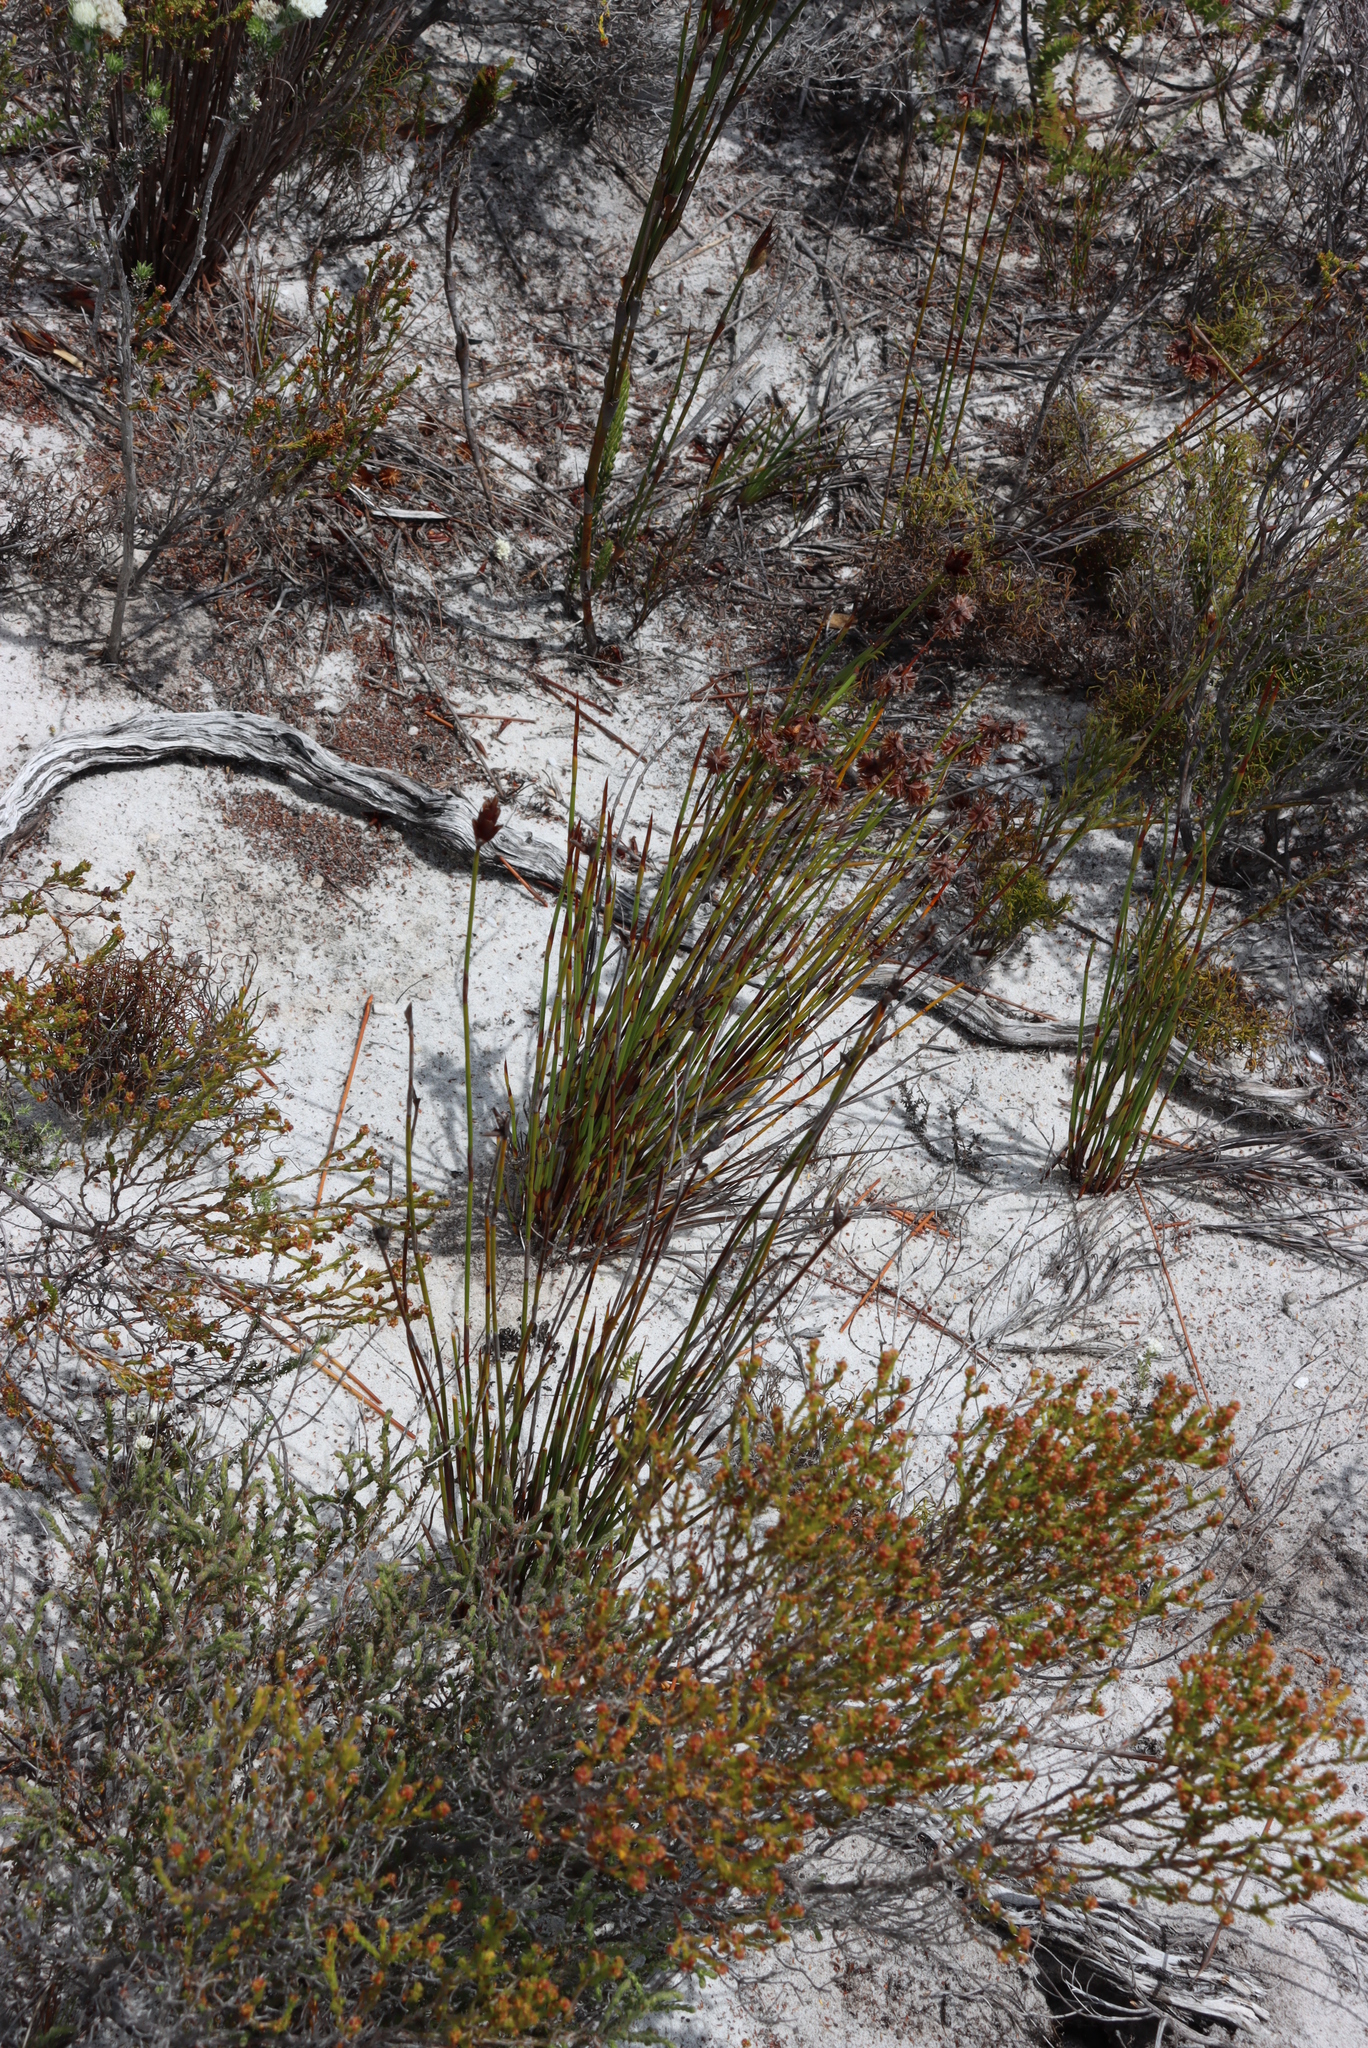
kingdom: Plantae
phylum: Tracheophyta
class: Liliopsida
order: Poales
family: Restionaceae
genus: Staberoha
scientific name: Staberoha banksii
